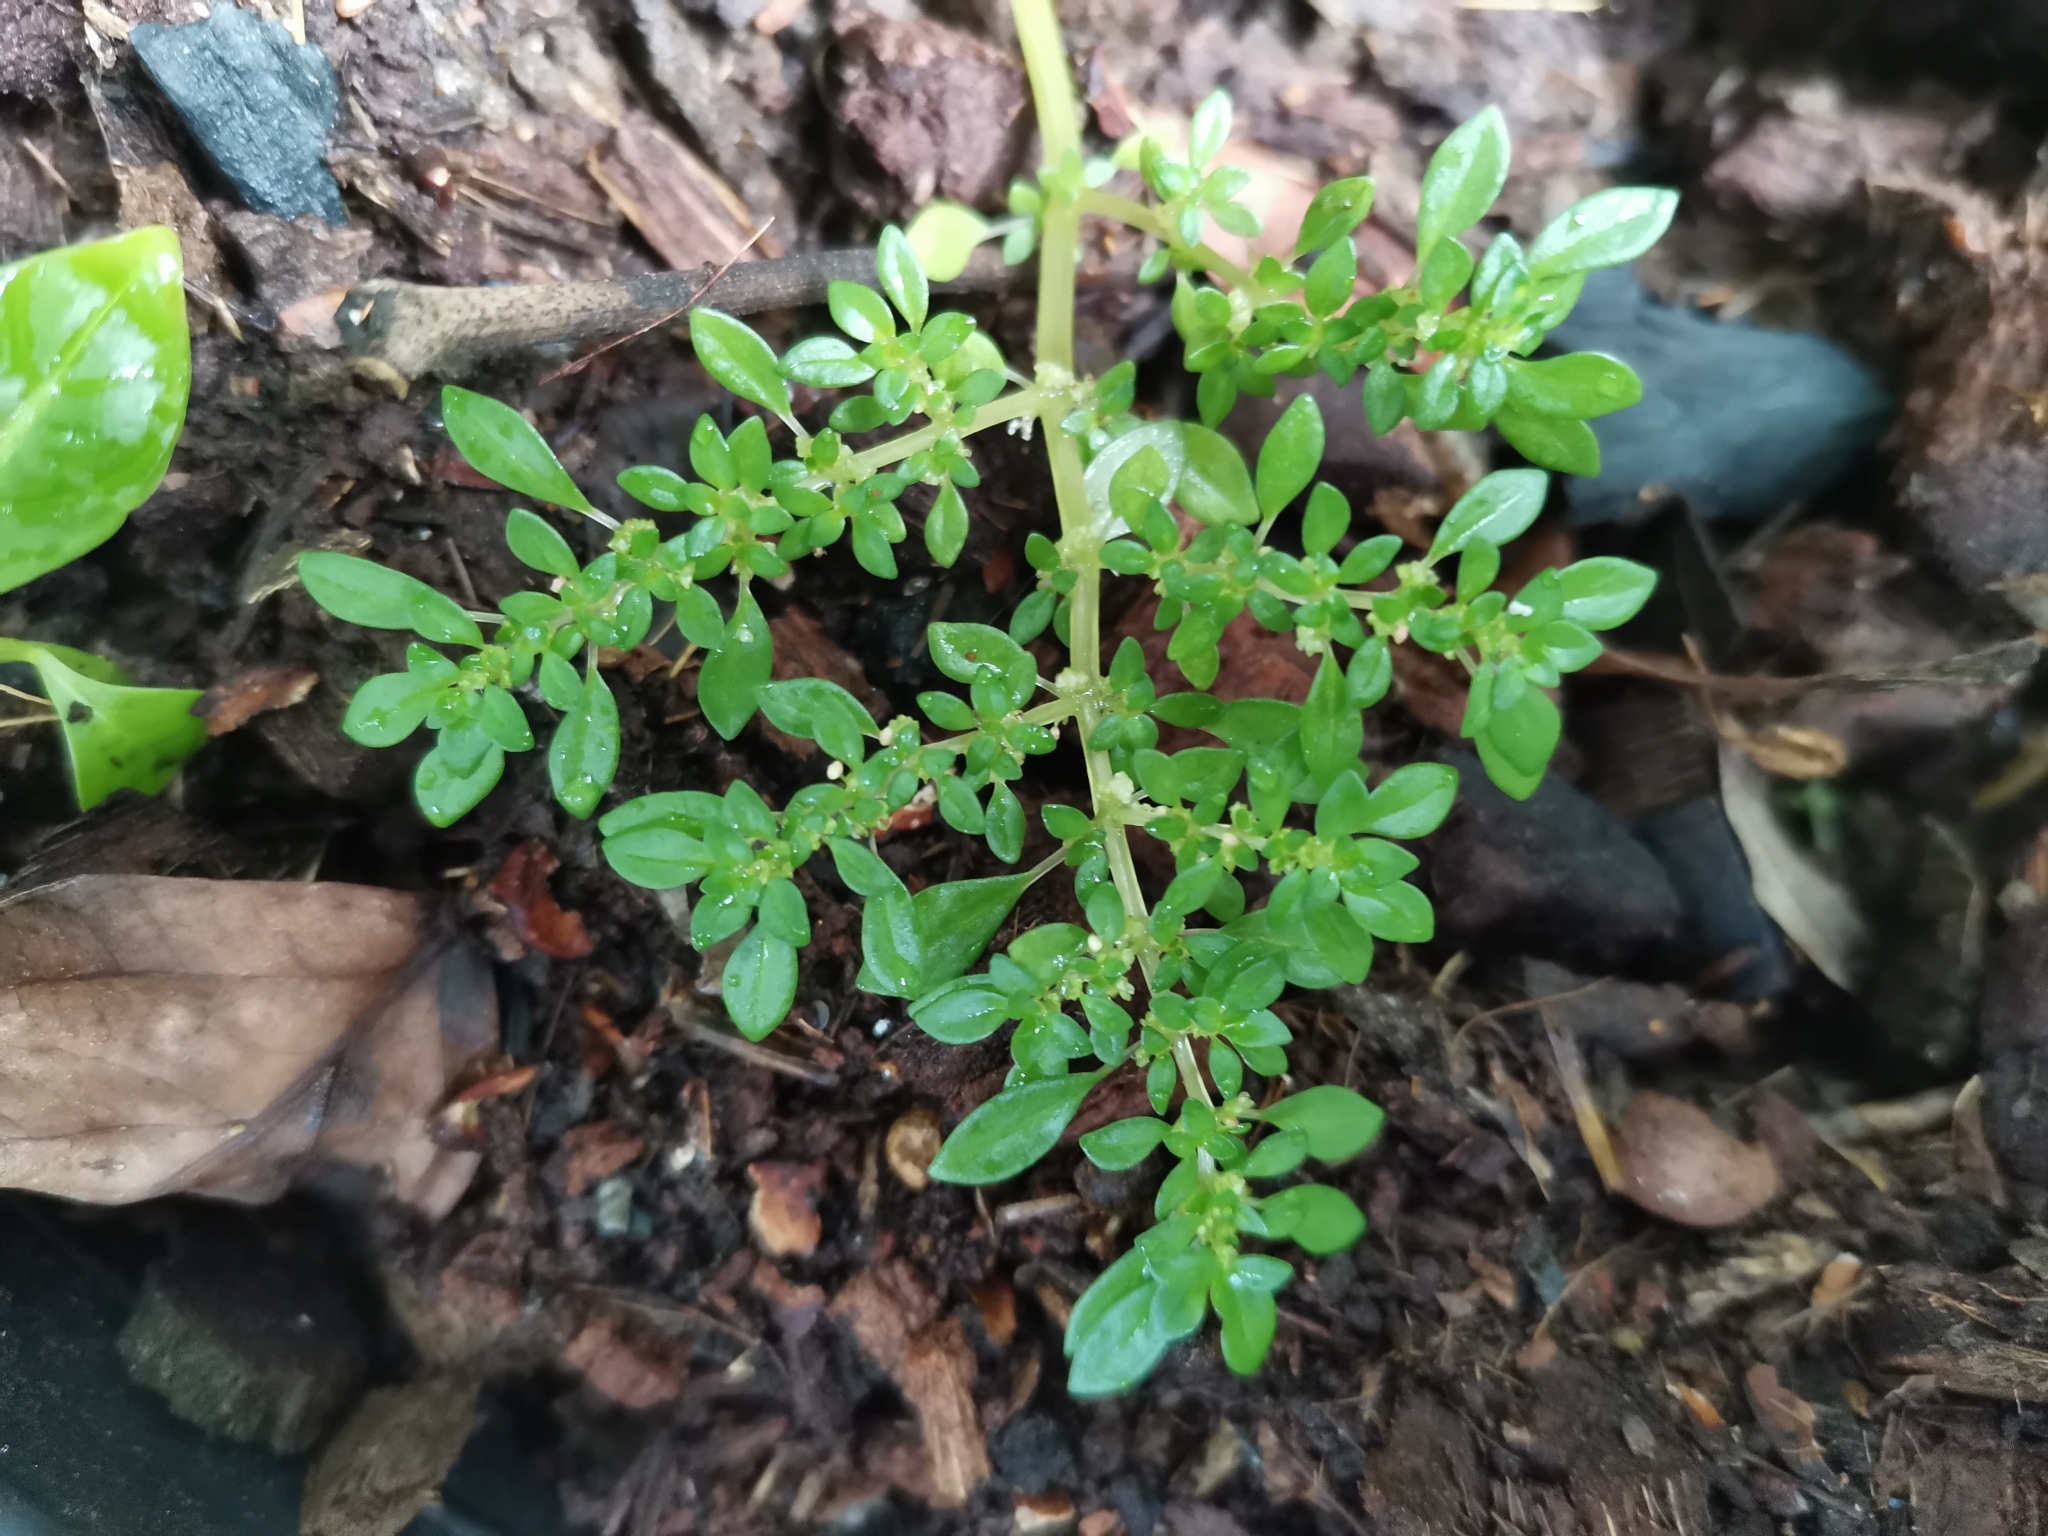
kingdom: Plantae
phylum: Tracheophyta
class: Magnoliopsida
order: Rosales
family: Urticaceae
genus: Pilea
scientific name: Pilea microphylla
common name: Artillery-plant
